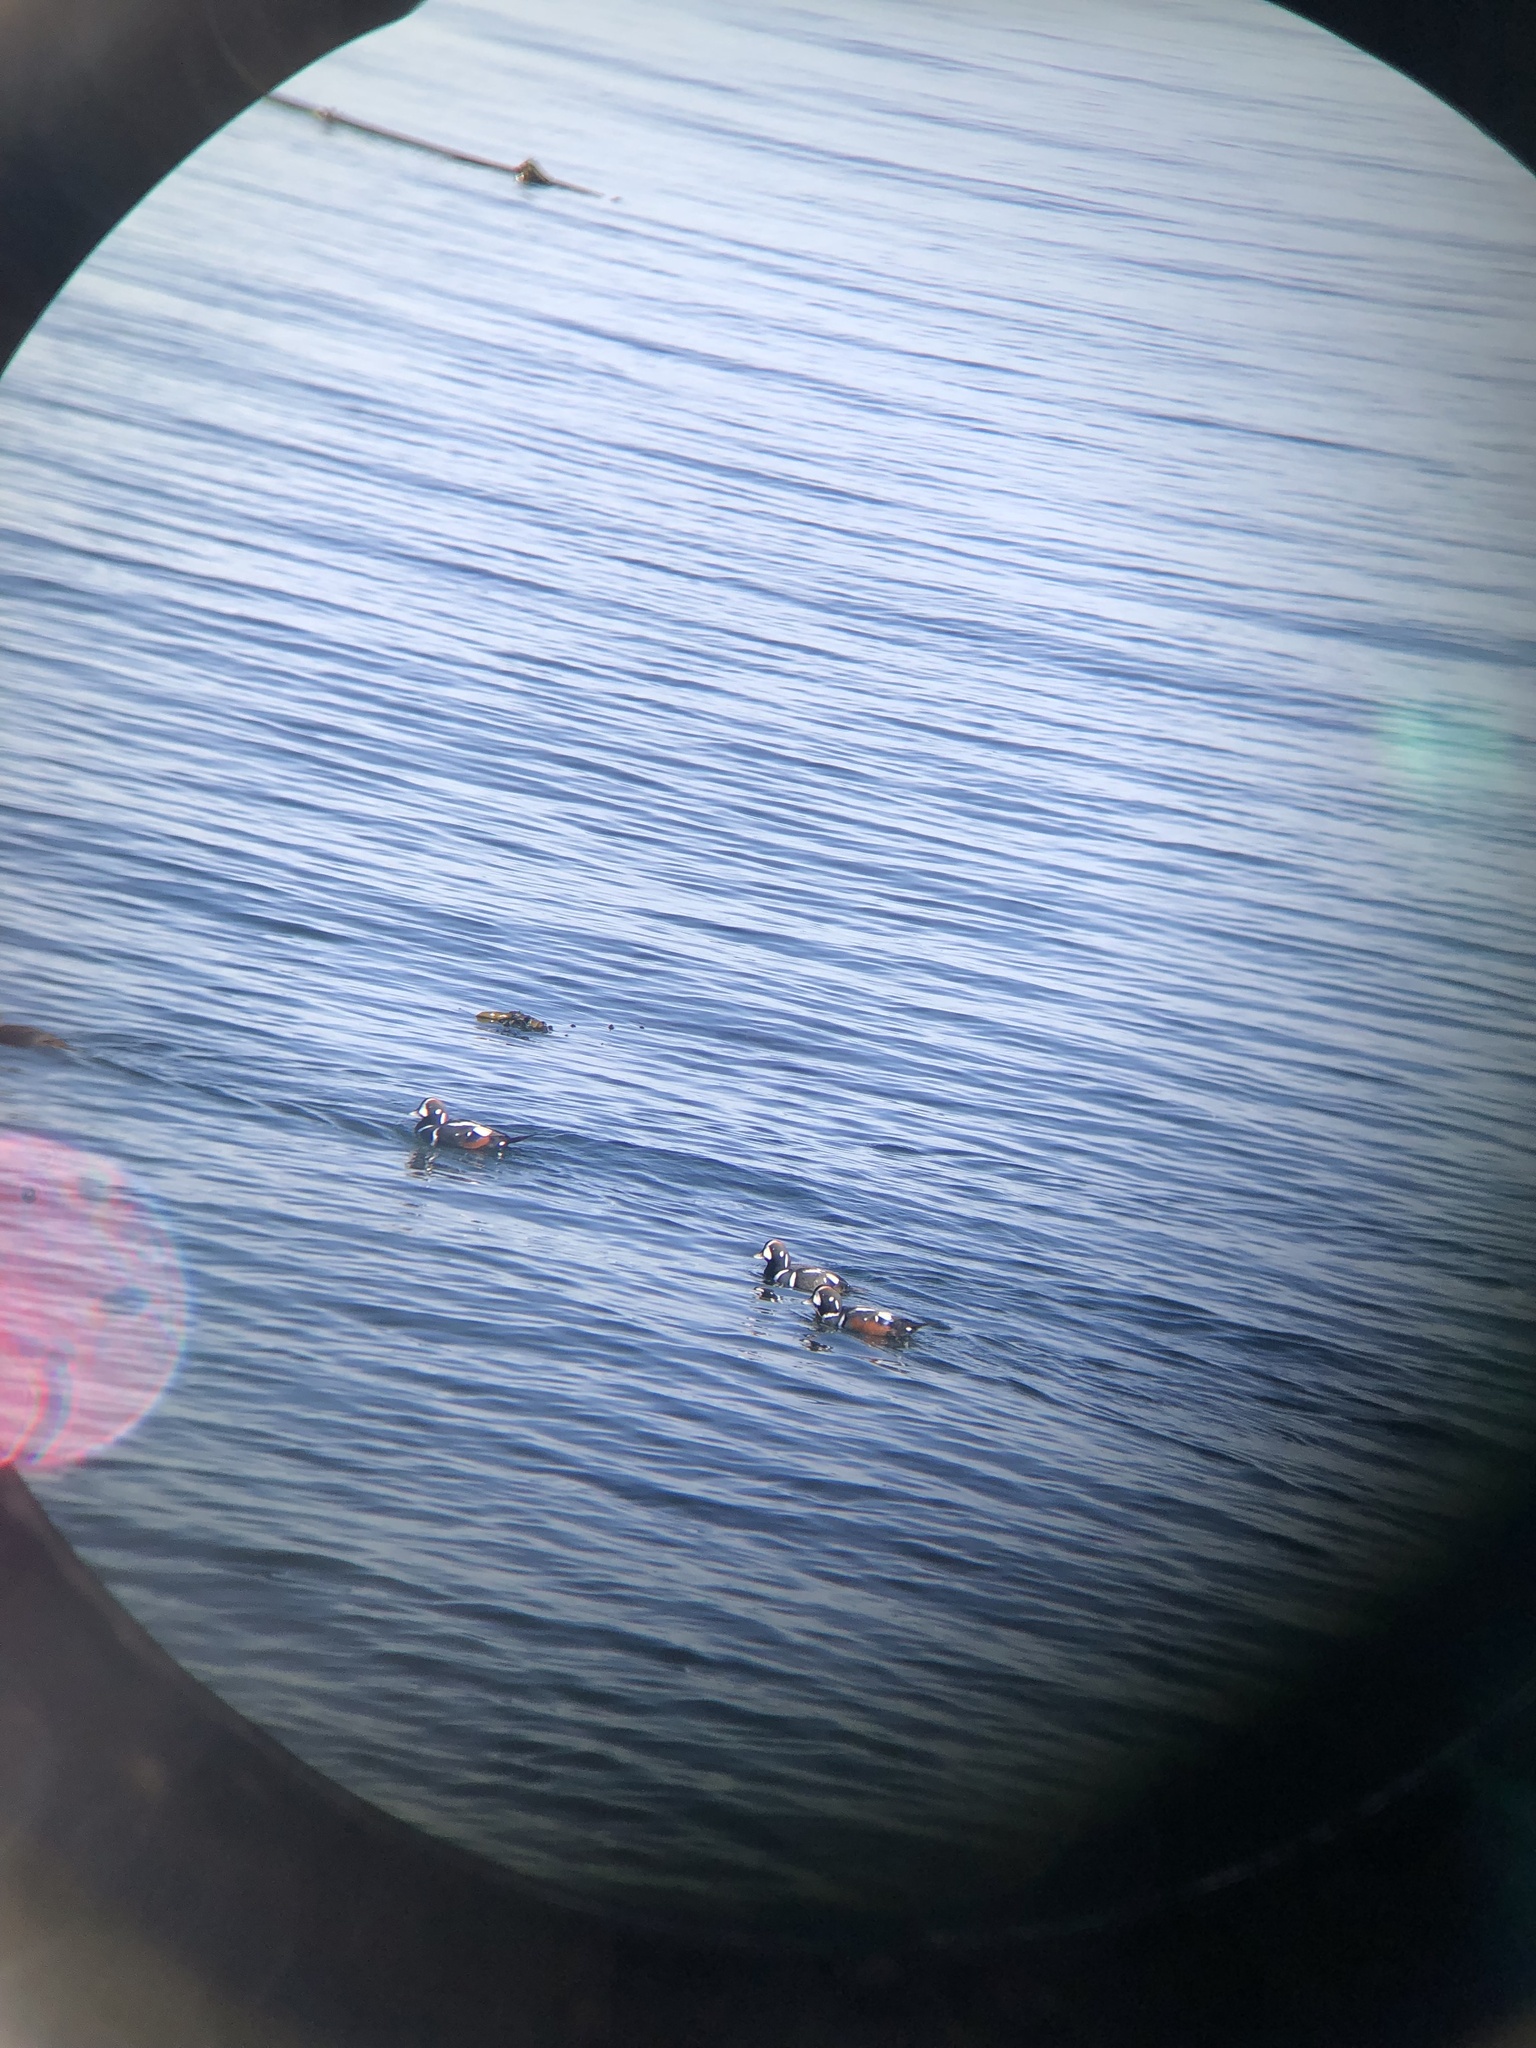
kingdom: Animalia
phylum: Chordata
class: Aves
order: Anseriformes
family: Anatidae
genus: Histrionicus
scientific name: Histrionicus histrionicus
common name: Harlequin duck
